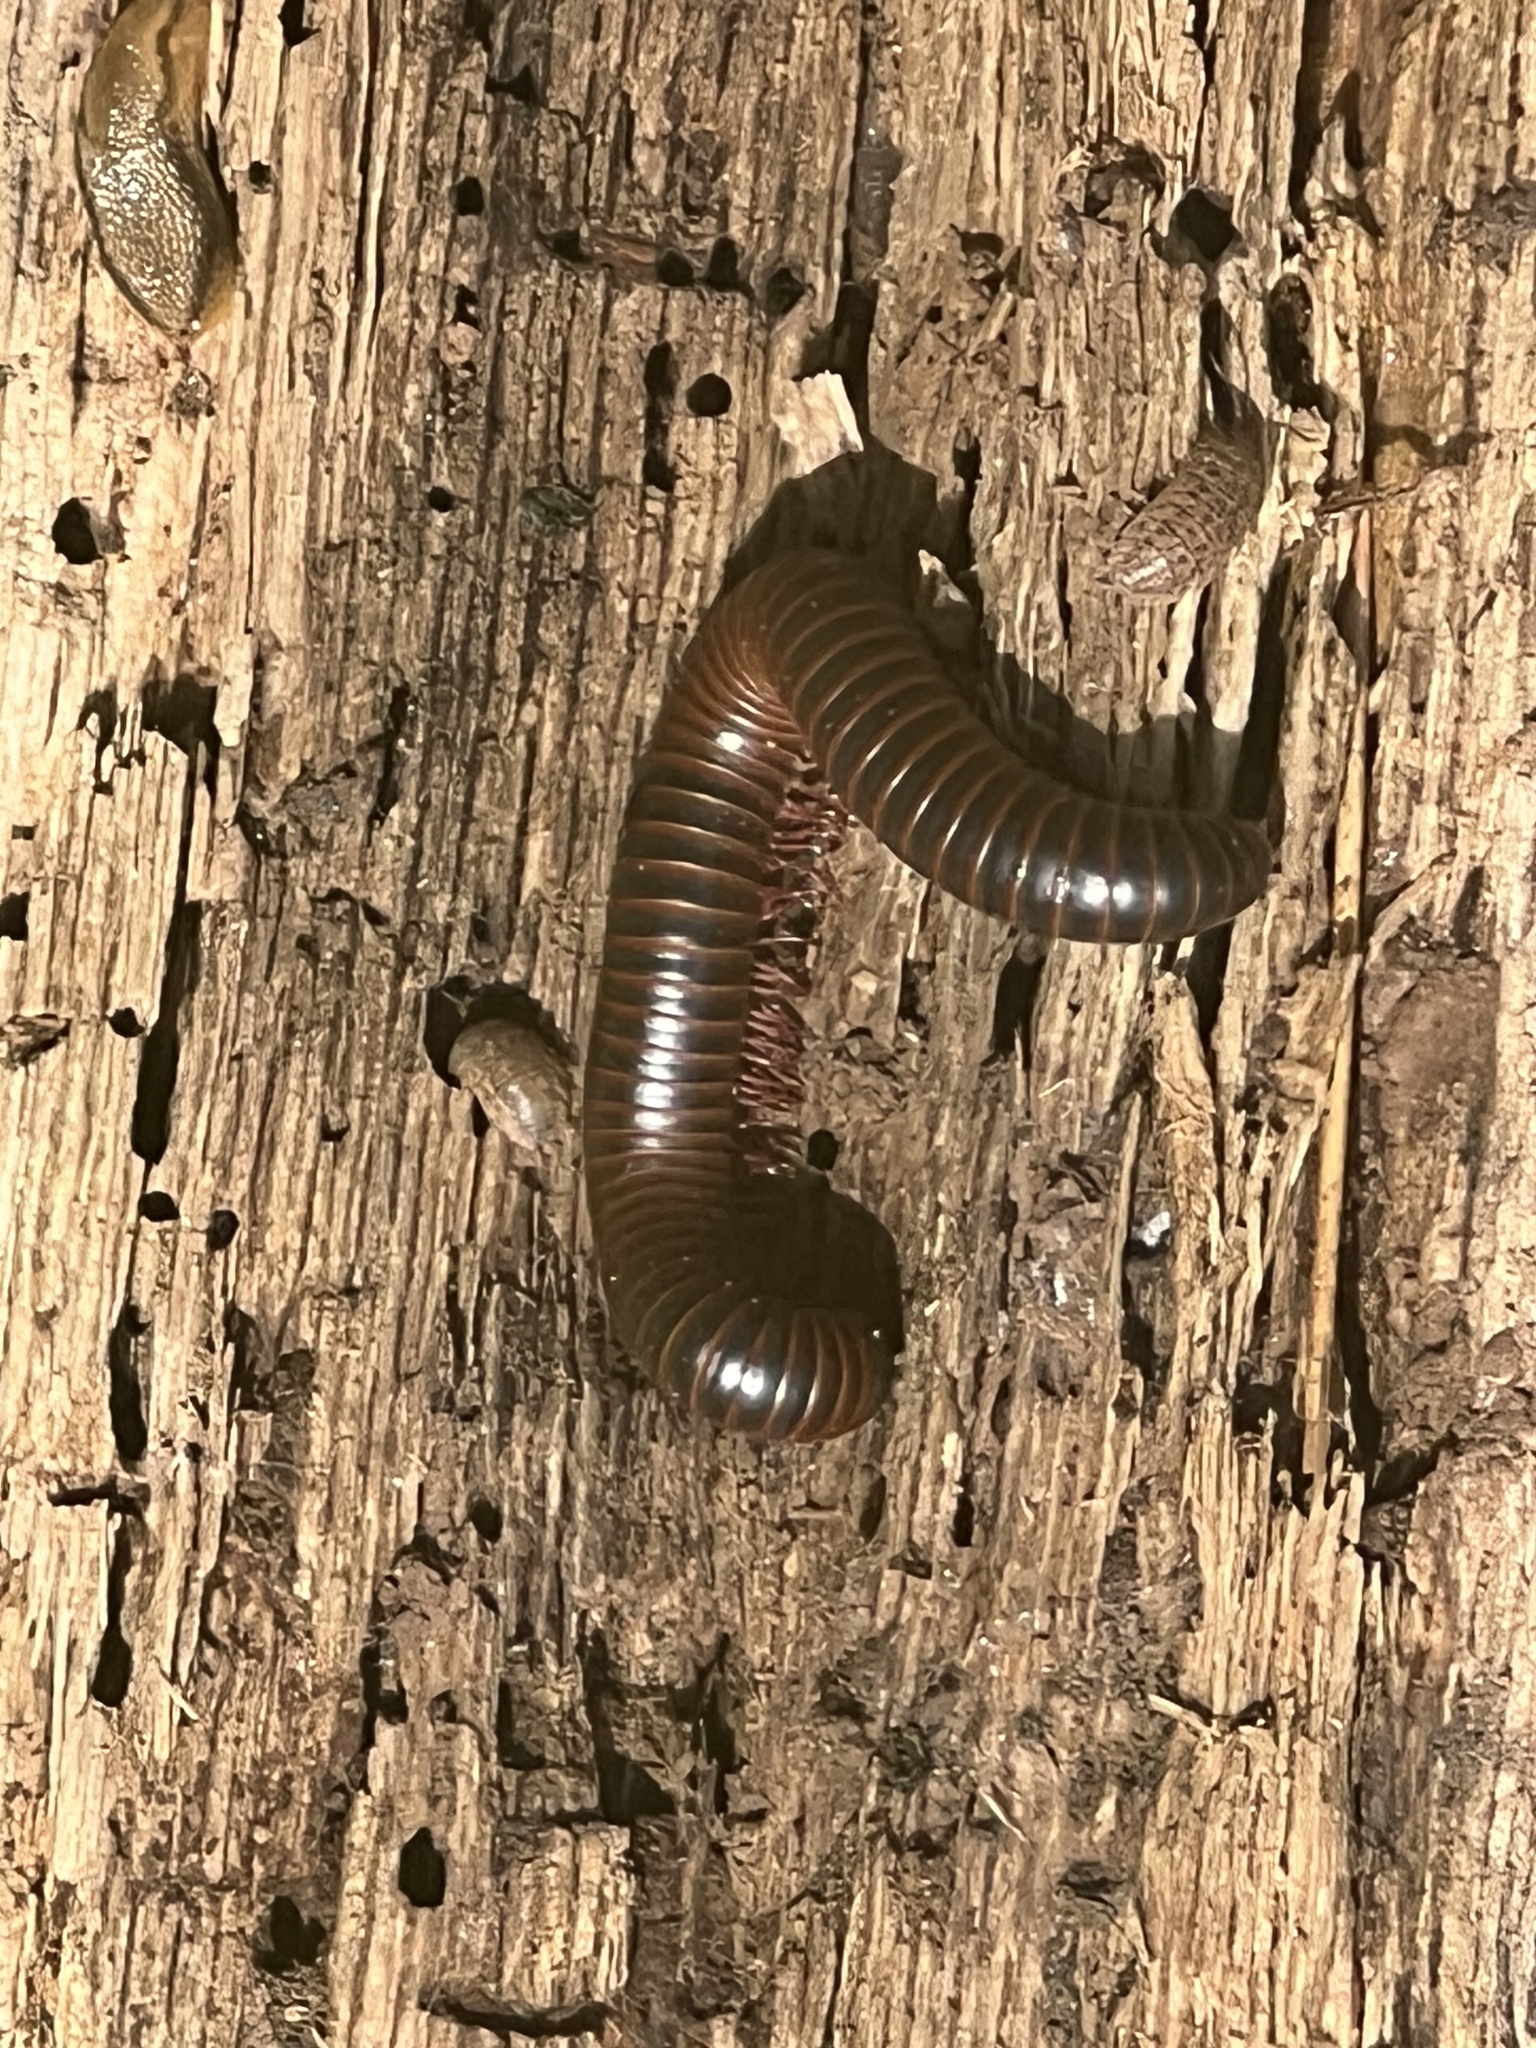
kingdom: Animalia
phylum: Arthropoda
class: Diplopoda
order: Spirobolida
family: Spirobolidae
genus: Narceus
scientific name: Narceus
